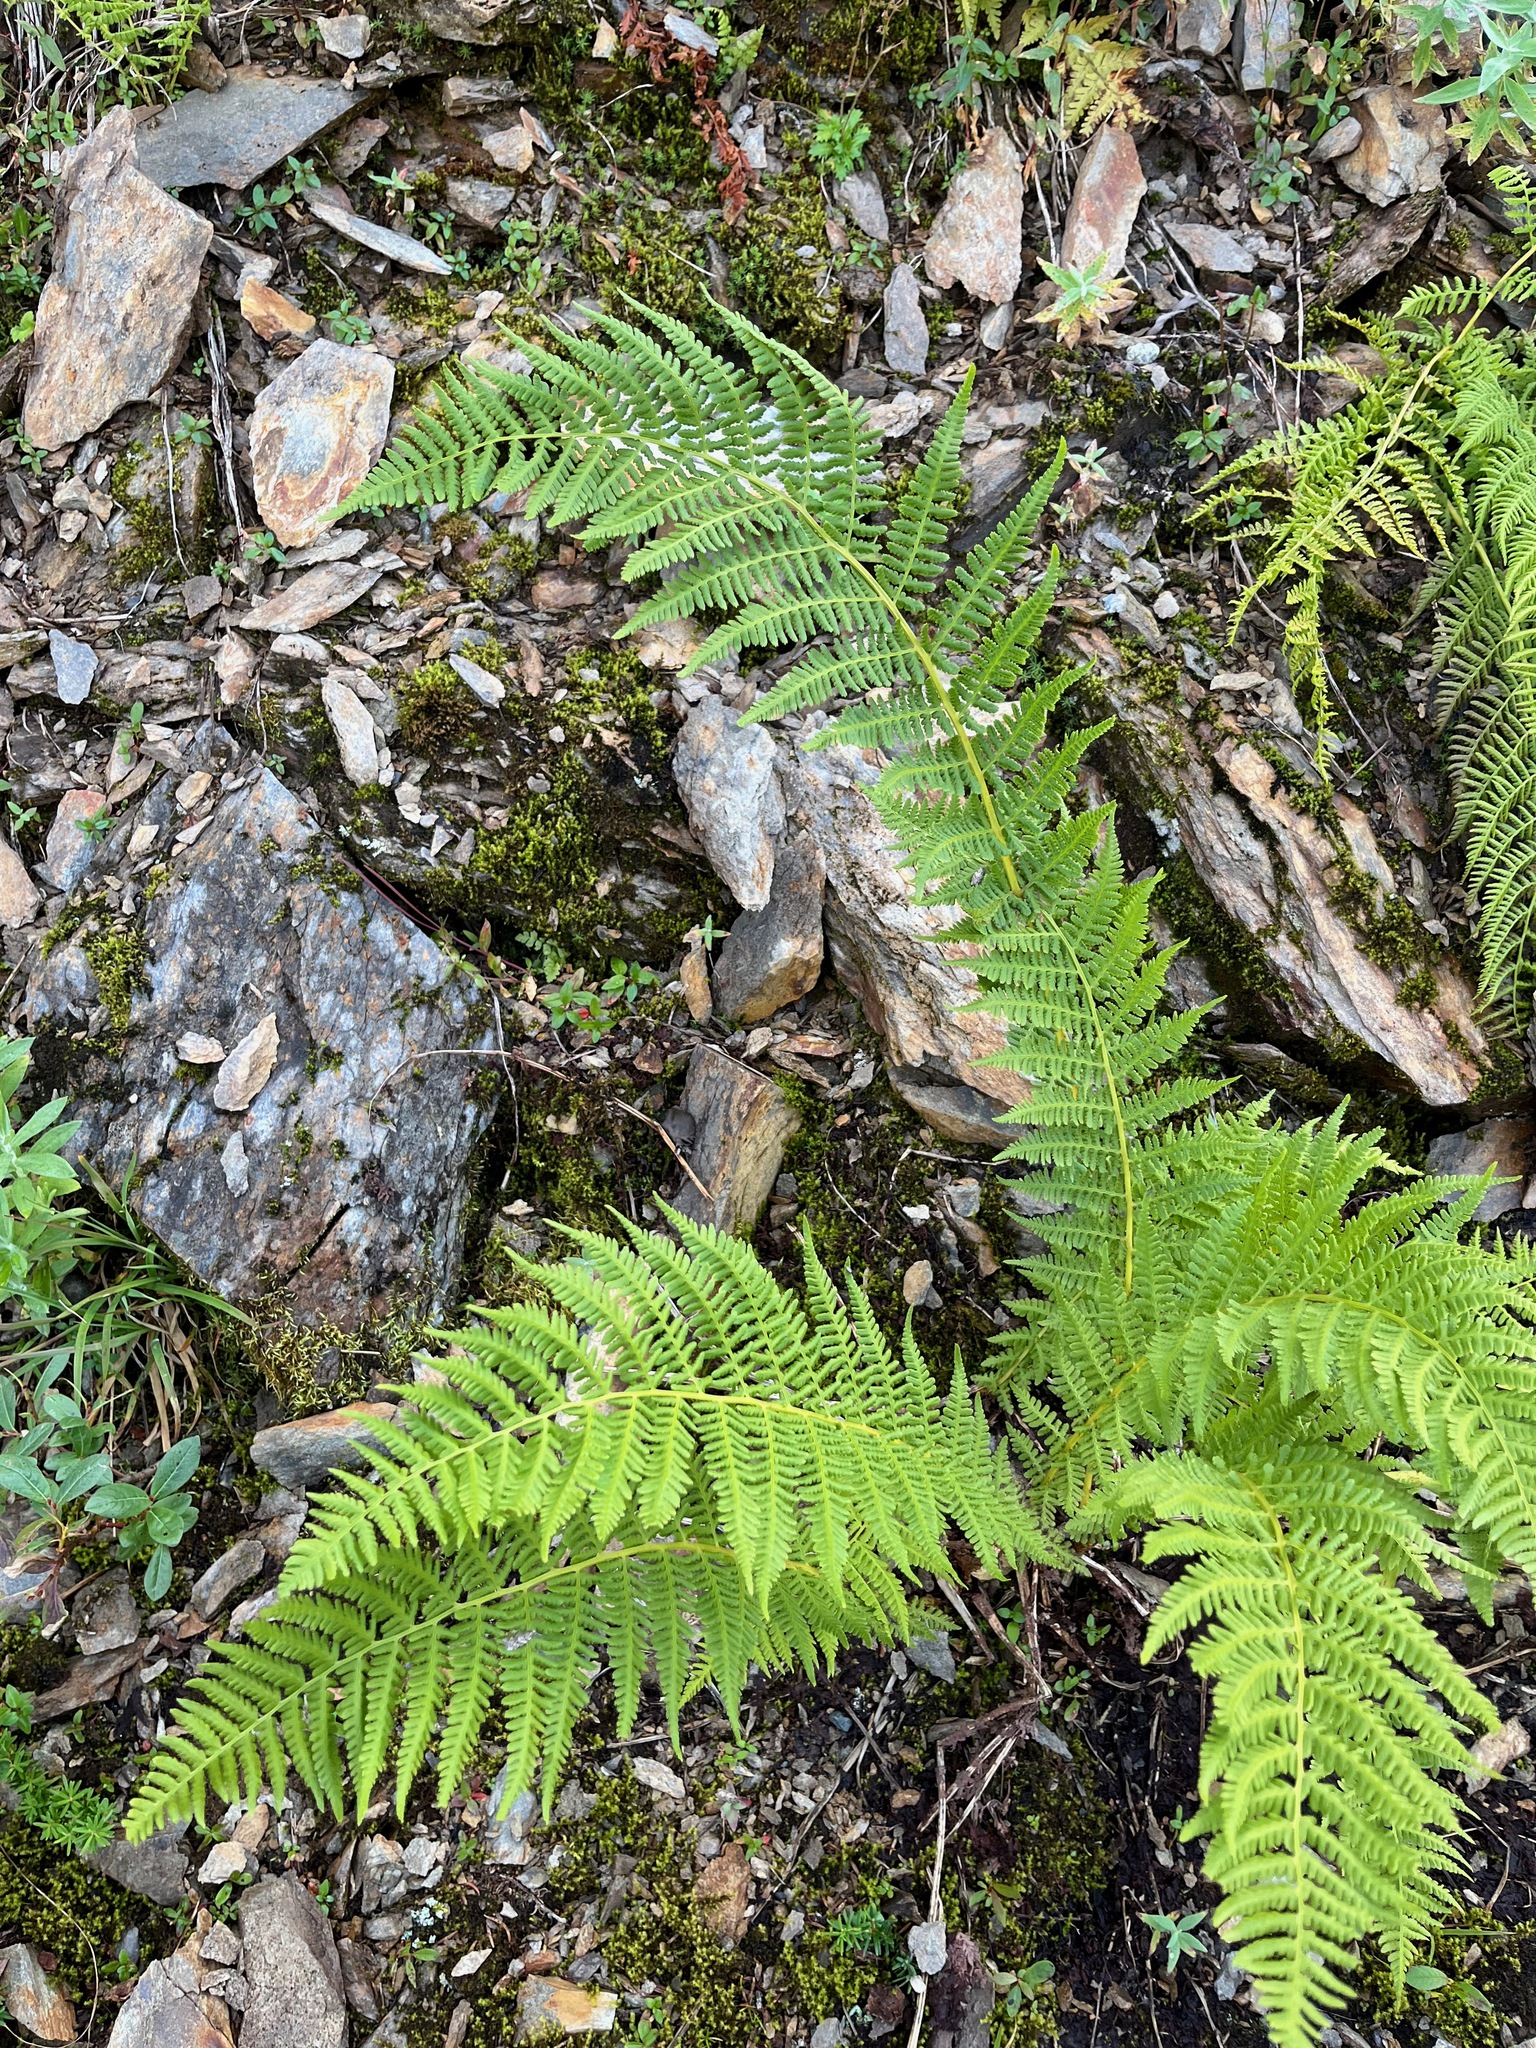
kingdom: Plantae
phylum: Tracheophyta
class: Polypodiopsida
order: Polypodiales
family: Athyriaceae
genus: Athyrium
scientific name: Athyrium filix-femina
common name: Lady fern
